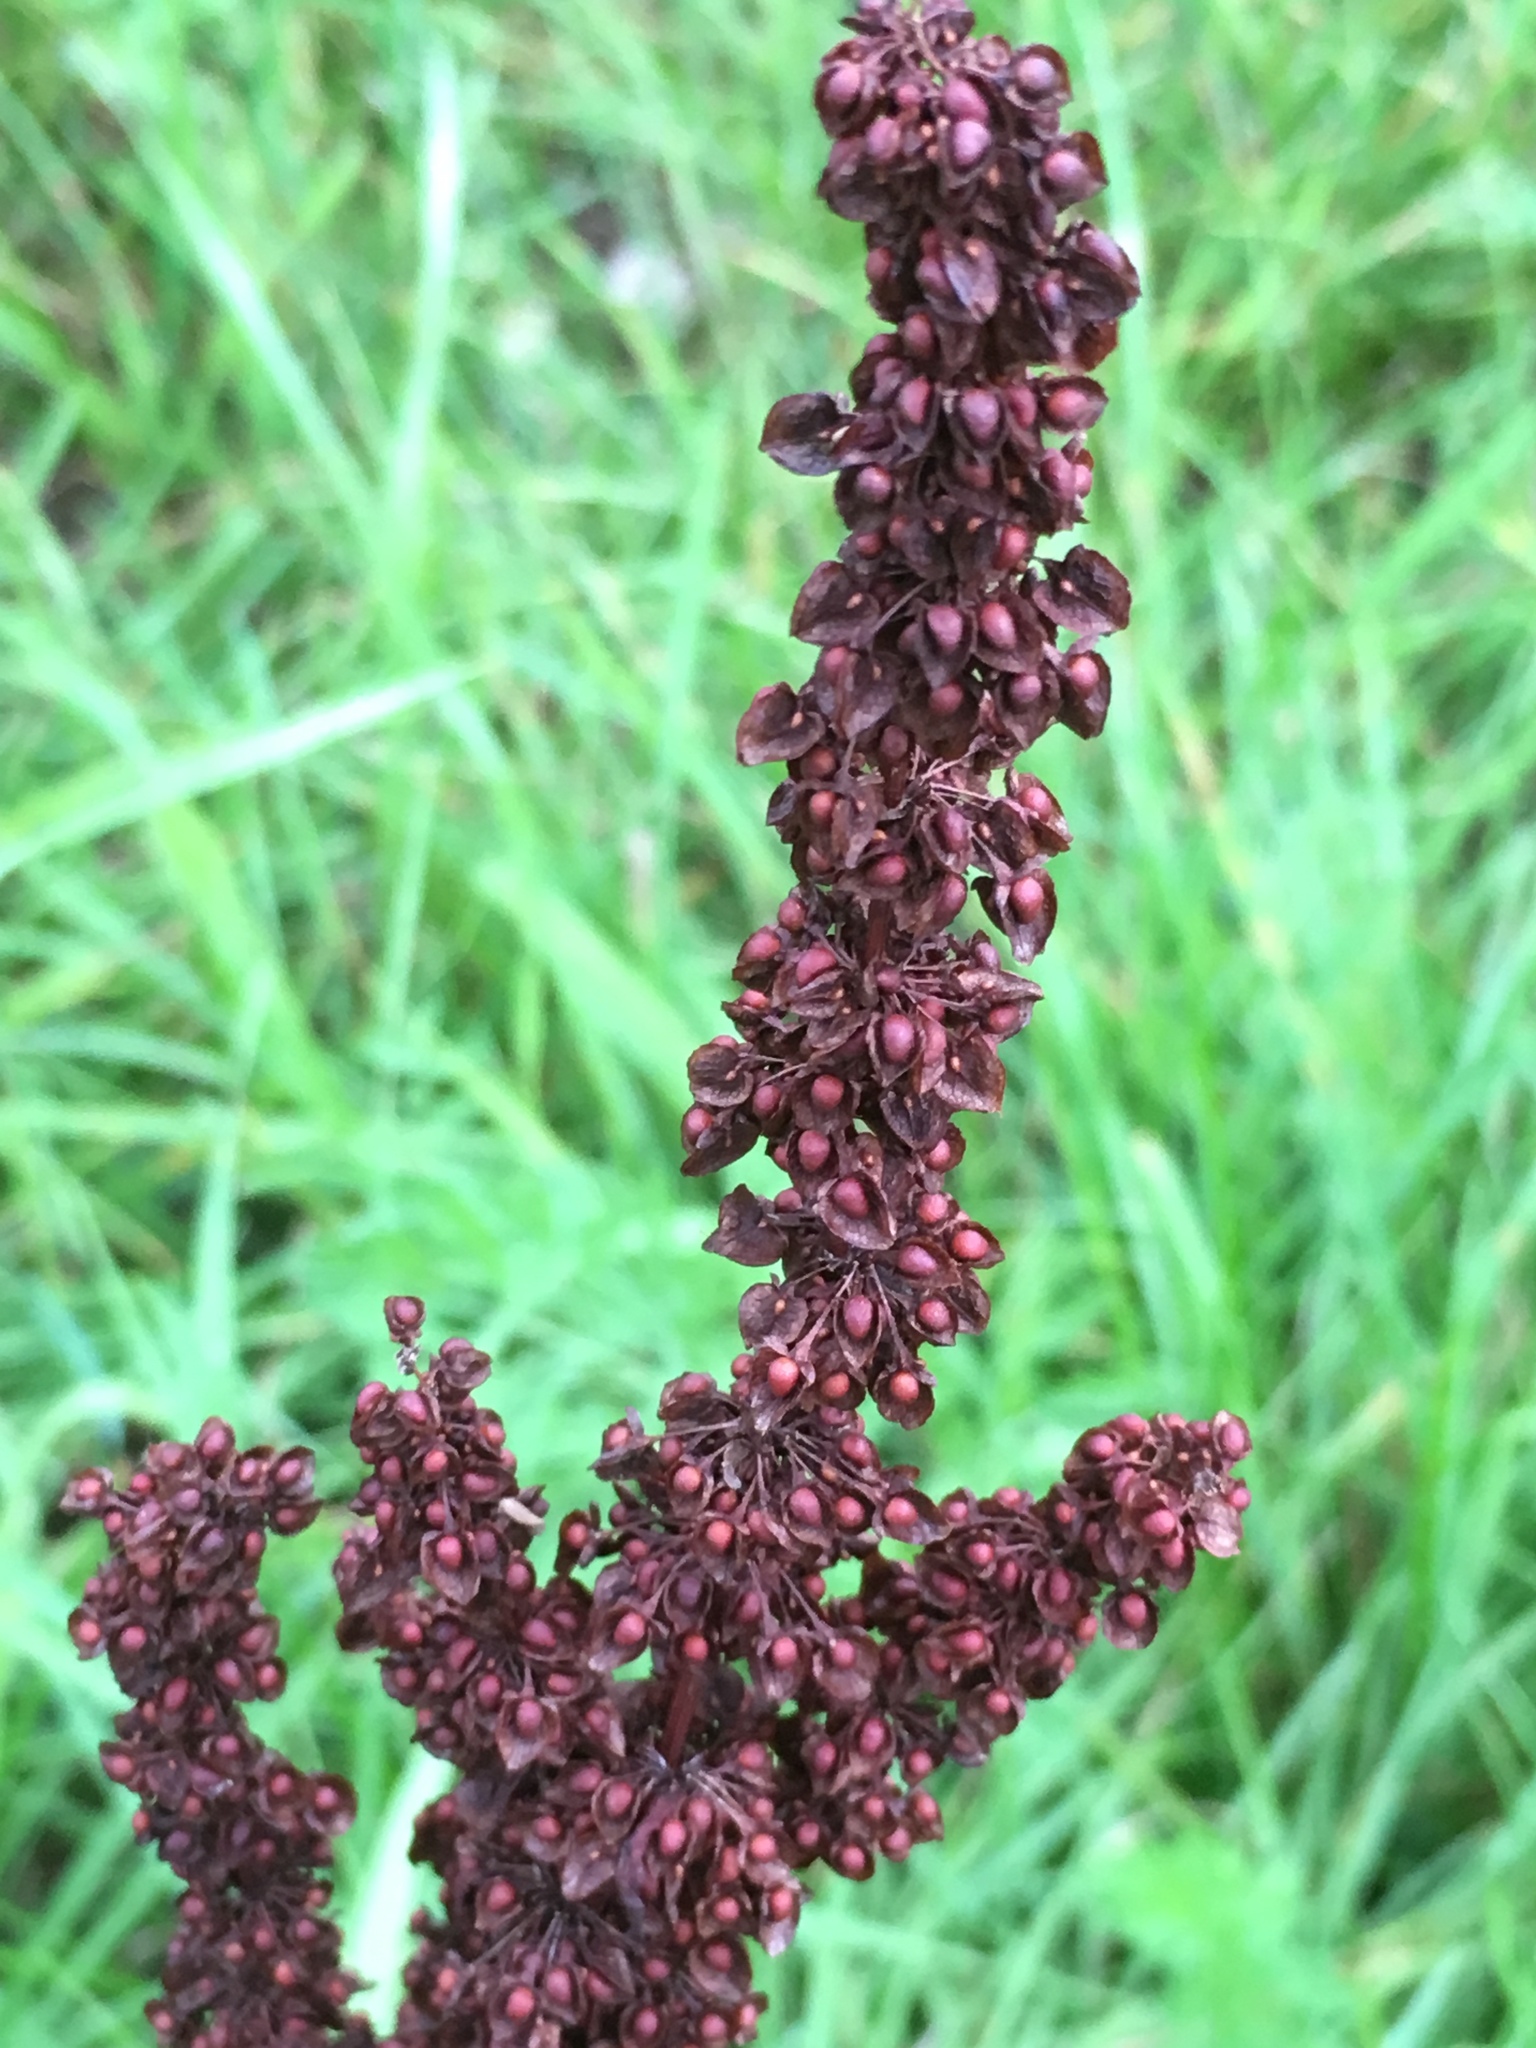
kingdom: Plantae
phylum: Tracheophyta
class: Magnoliopsida
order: Caryophyllales
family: Polygonaceae
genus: Rumex
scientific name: Rumex crispus
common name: Curled dock
